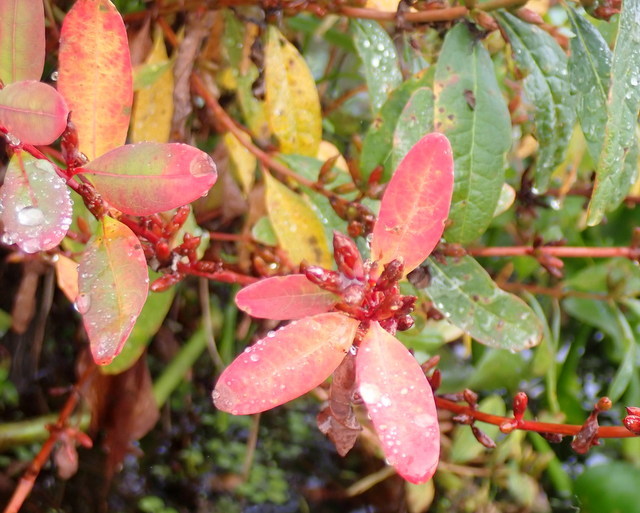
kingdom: Plantae
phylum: Tracheophyta
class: Magnoliopsida
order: Malpighiales
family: Hypericaceae
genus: Triadenum
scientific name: Triadenum walteri
